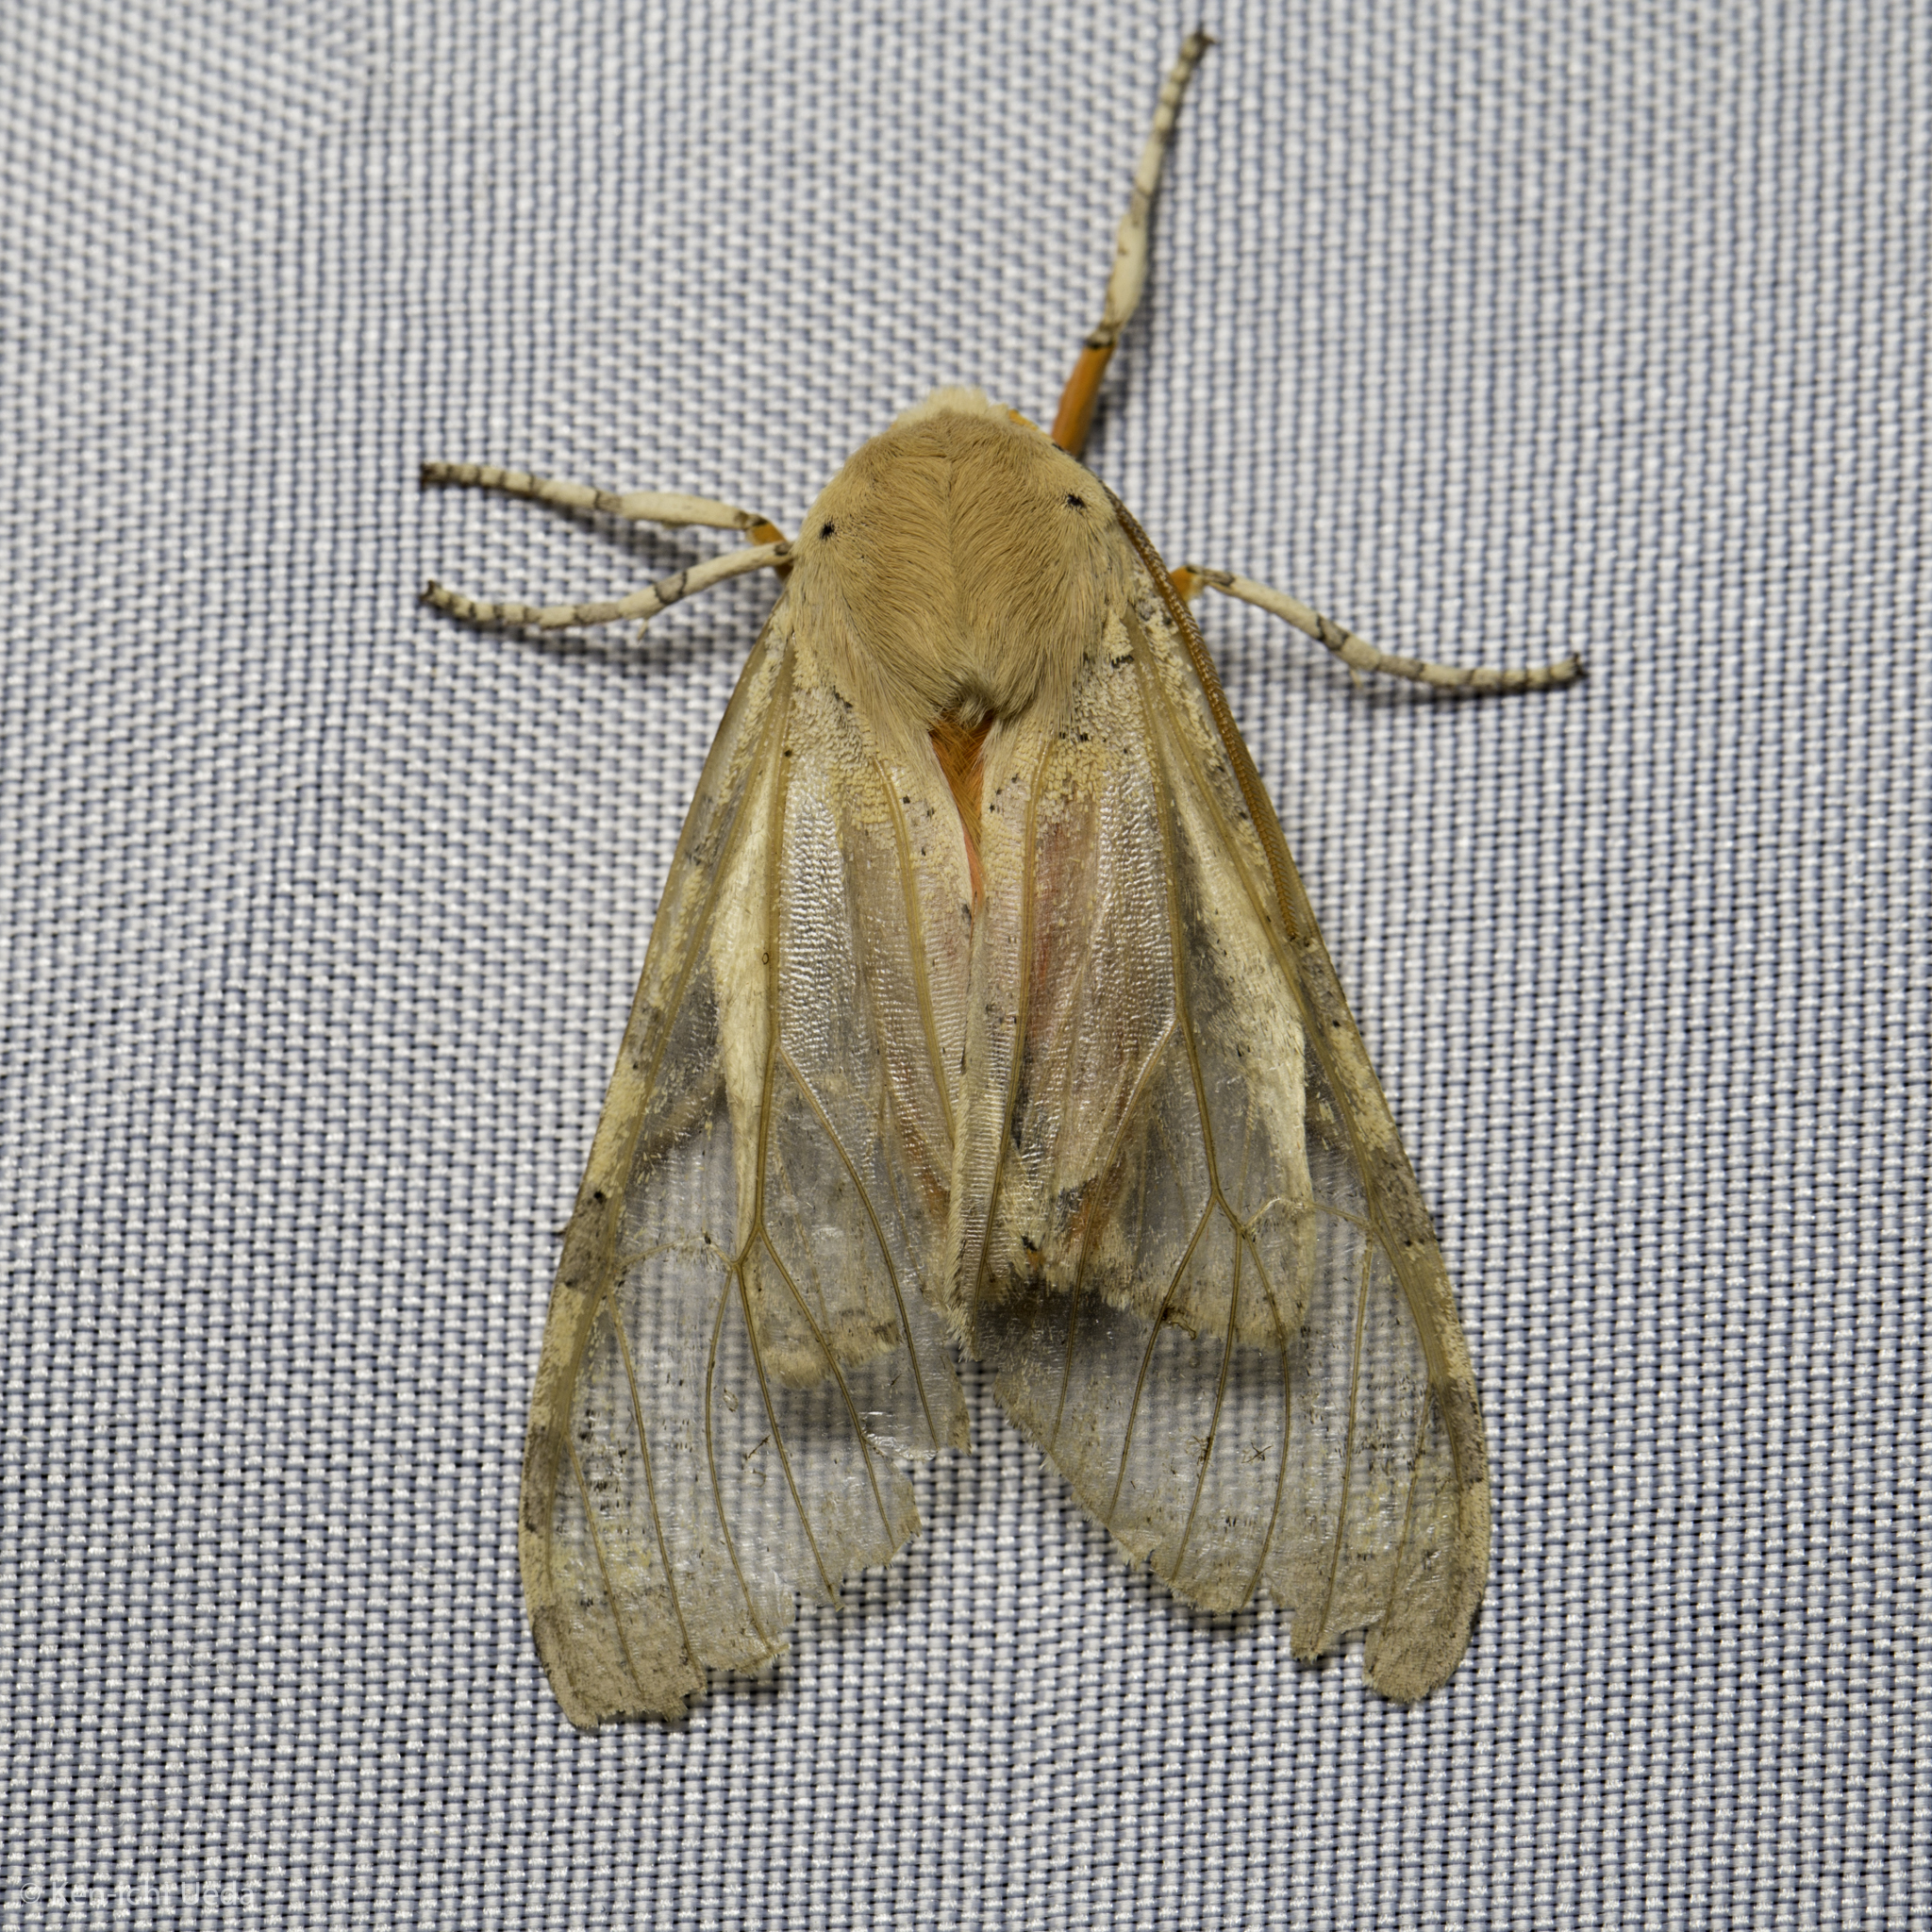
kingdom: Animalia
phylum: Arthropoda
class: Insecta
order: Lepidoptera
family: Erebidae
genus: Hemihyalea
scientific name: Hemihyalea edwardsii
